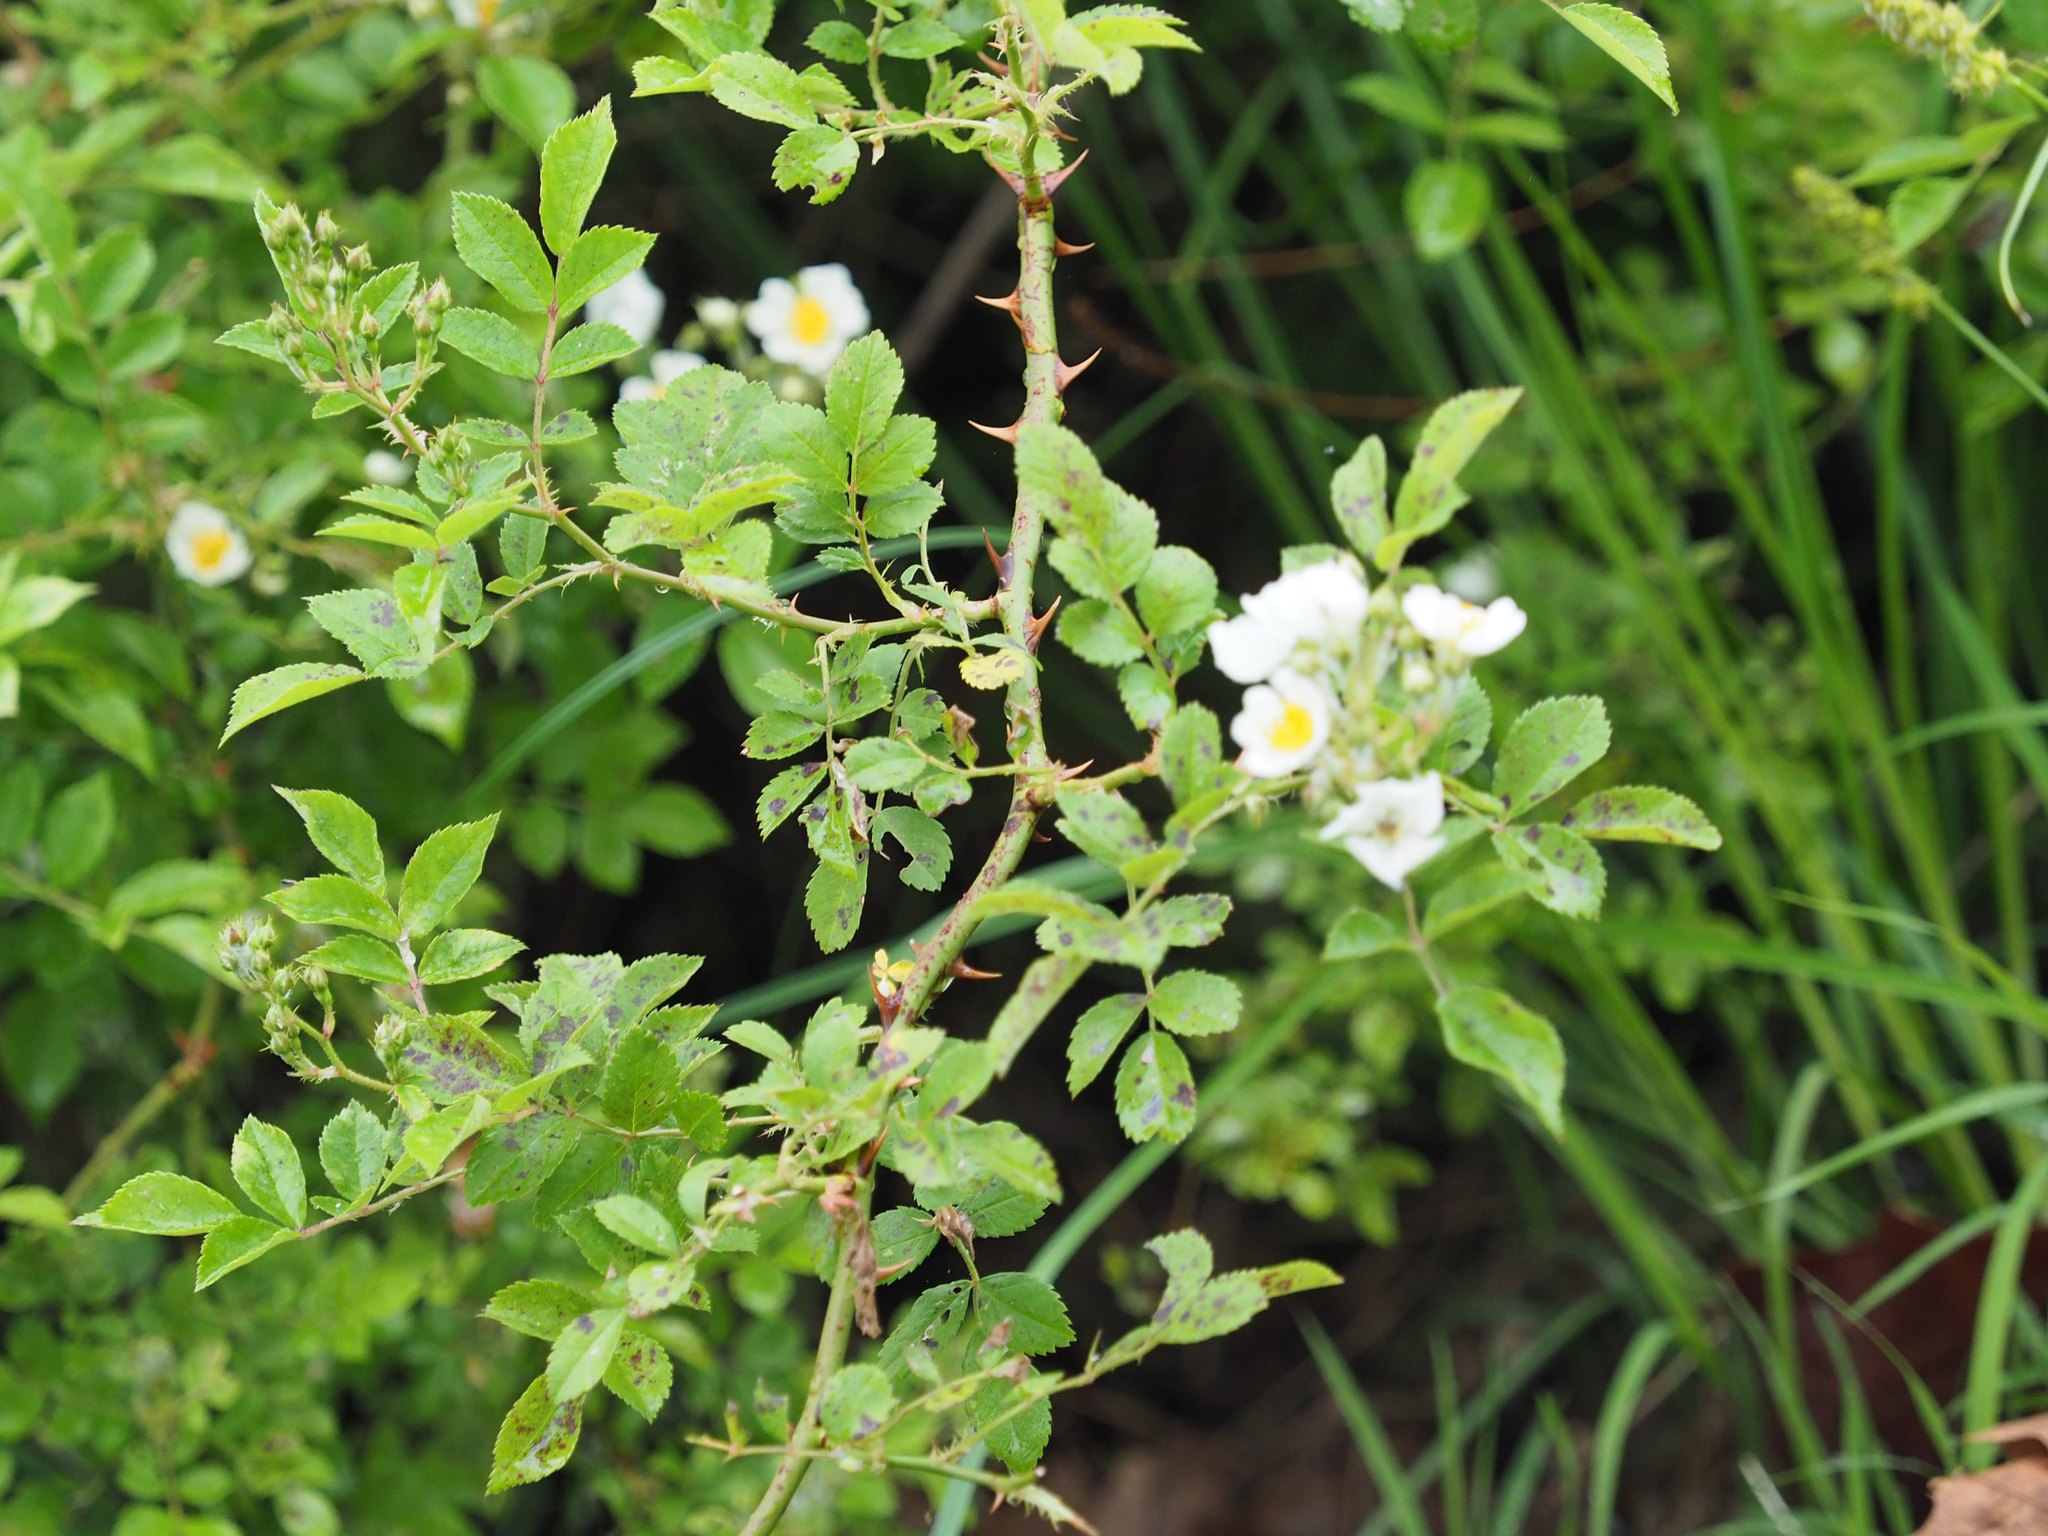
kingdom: Plantae
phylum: Tracheophyta
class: Magnoliopsida
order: Rosales
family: Rosaceae
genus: Rosa
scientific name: Rosa multiflora
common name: Multiflora rose
